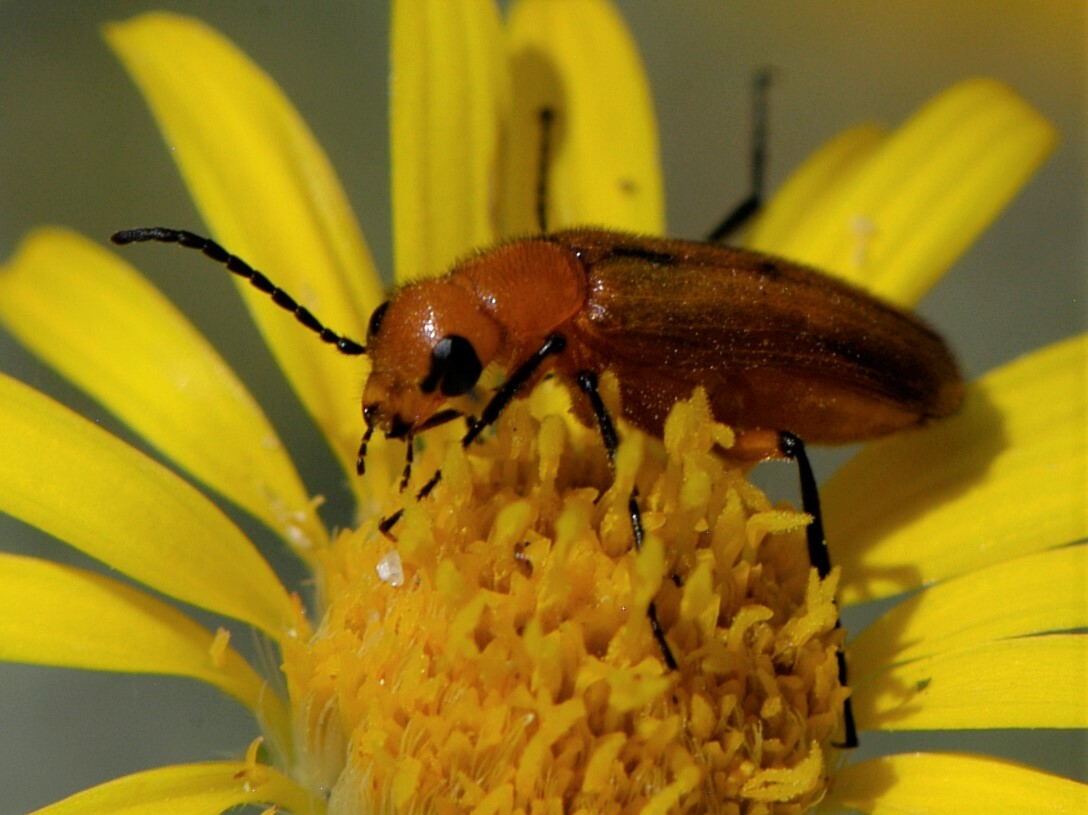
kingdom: Animalia
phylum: Arthropoda
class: Insecta
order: Coleoptera
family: Meloidae
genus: Nemognatha
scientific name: Nemognatha nigripennis
